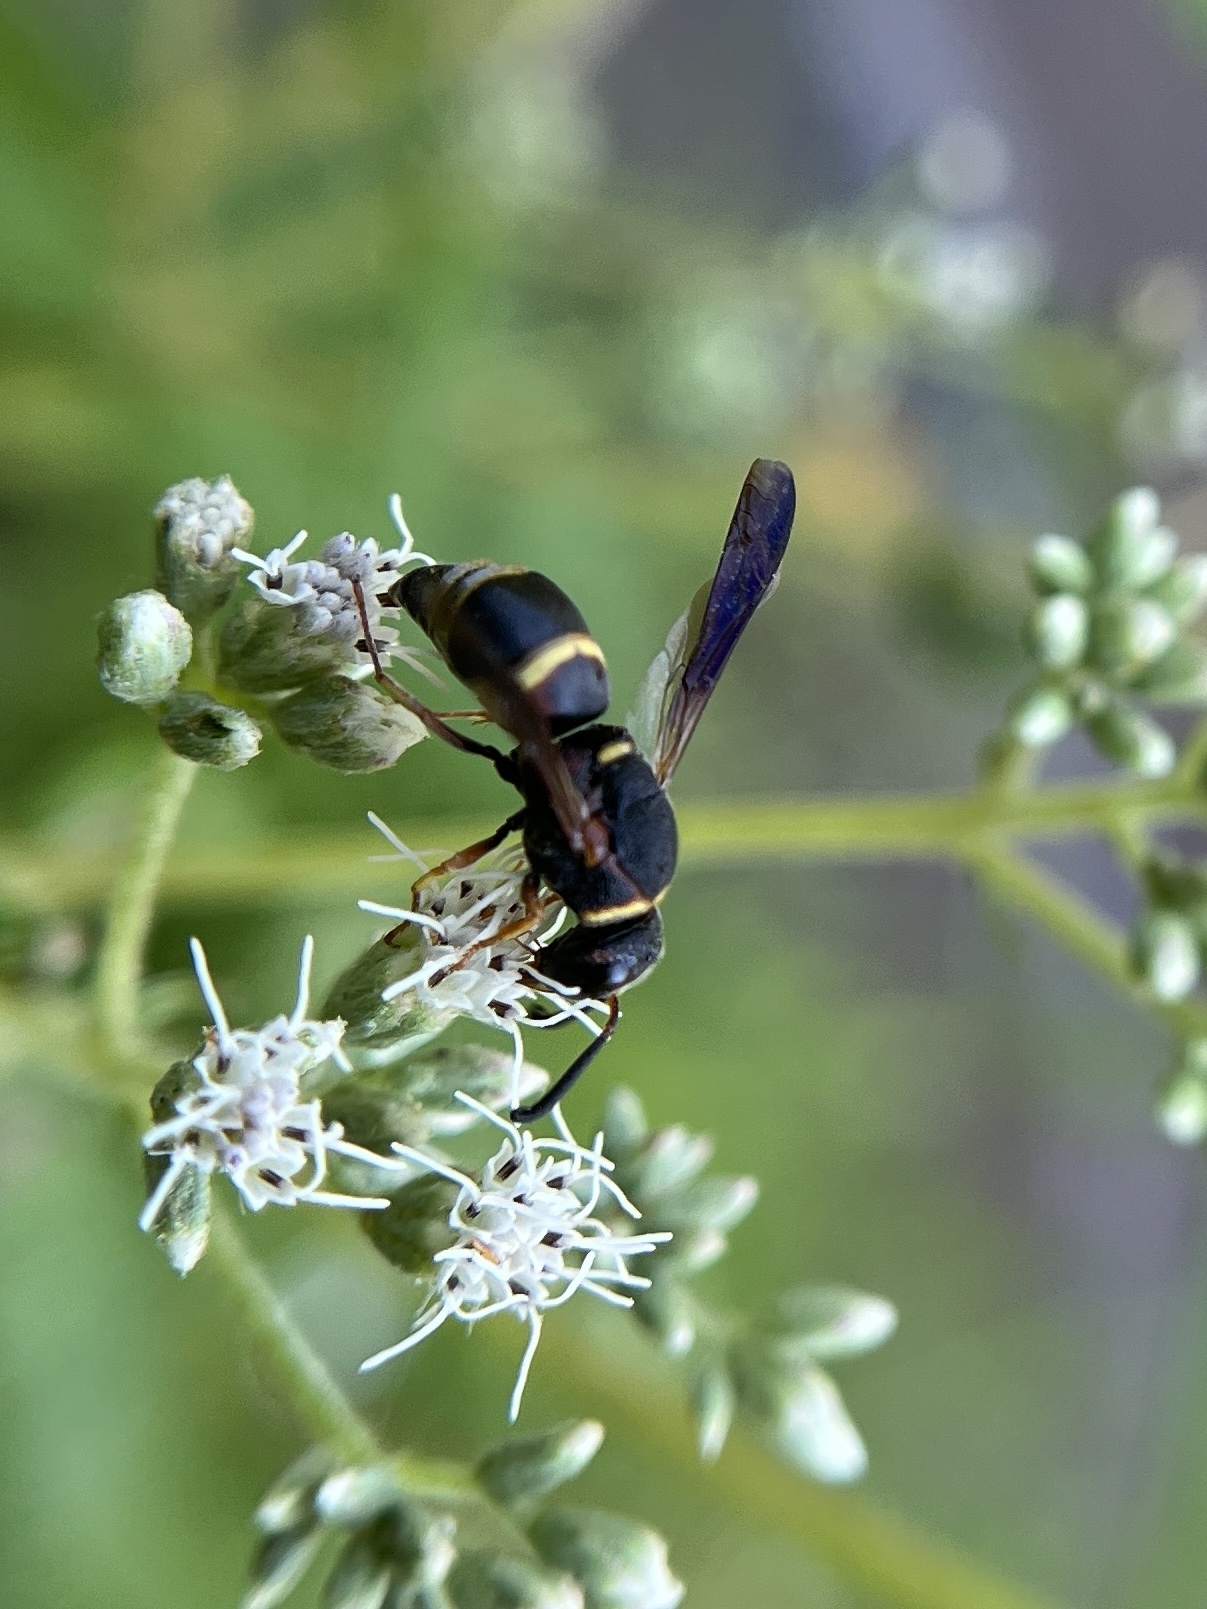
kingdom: Animalia
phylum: Arthropoda
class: Insecta
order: Hymenoptera
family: Eumenidae
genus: Euodynerus
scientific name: Euodynerus hidalgo
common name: Wasp
